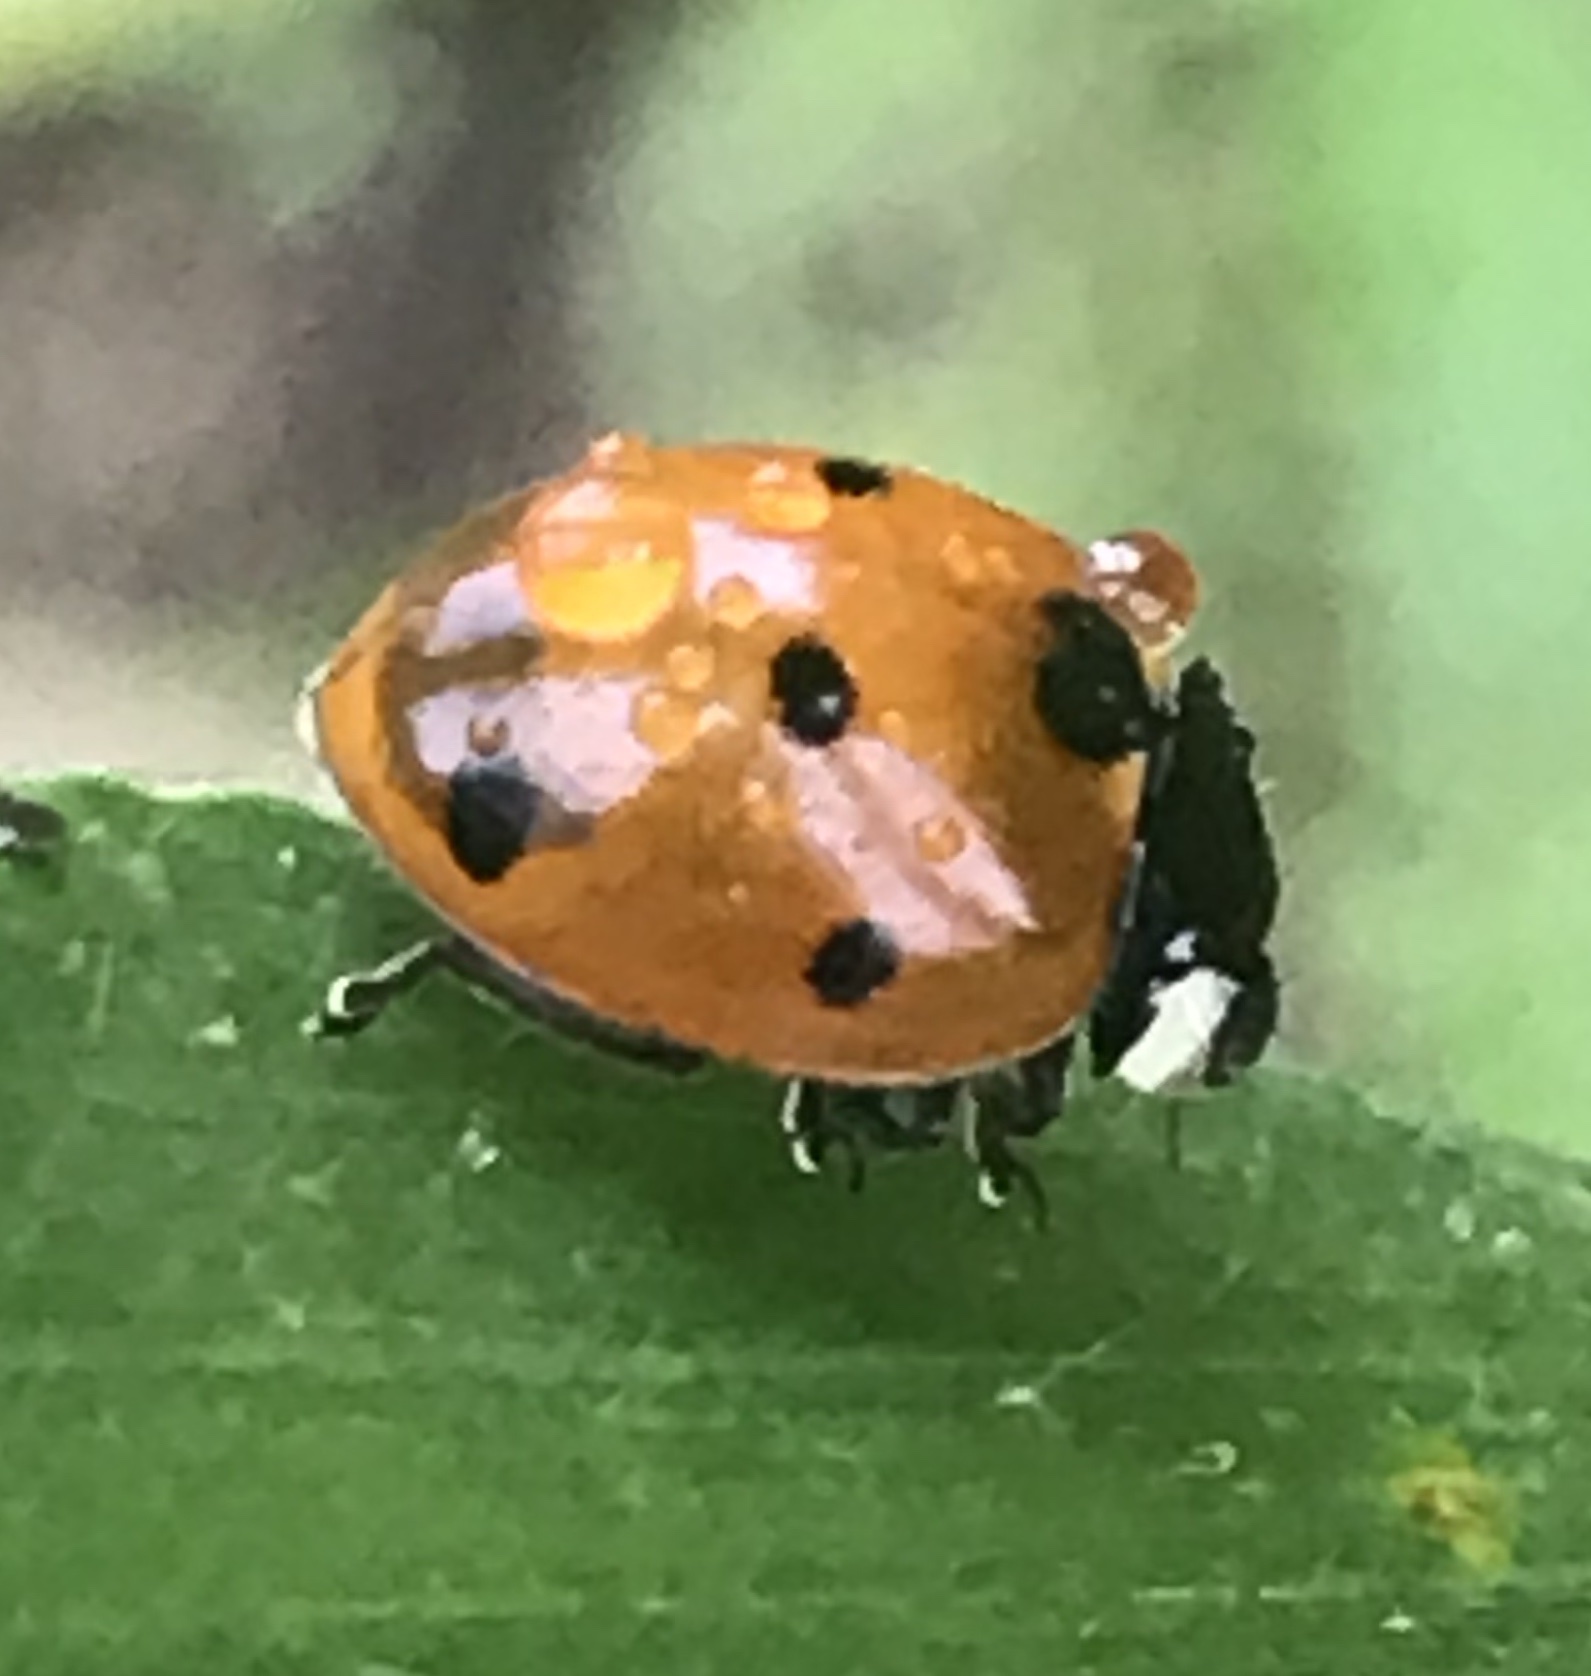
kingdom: Animalia
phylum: Arthropoda
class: Insecta
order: Coleoptera
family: Coccinellidae
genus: Coccinella
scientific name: Coccinella septempunctata
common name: Sevenspotted lady beetle
